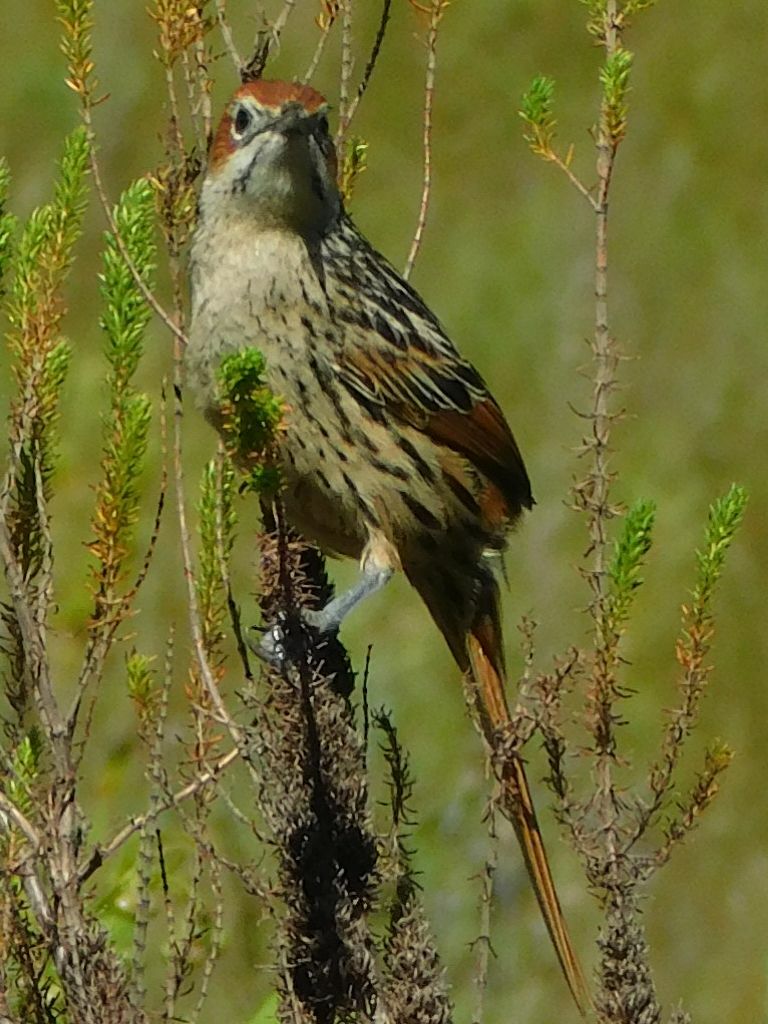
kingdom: Animalia
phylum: Chordata
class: Aves
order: Passeriformes
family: Macrosphenidae
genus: Sphenoeacus
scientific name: Sphenoeacus afer
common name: Cape grassbird
